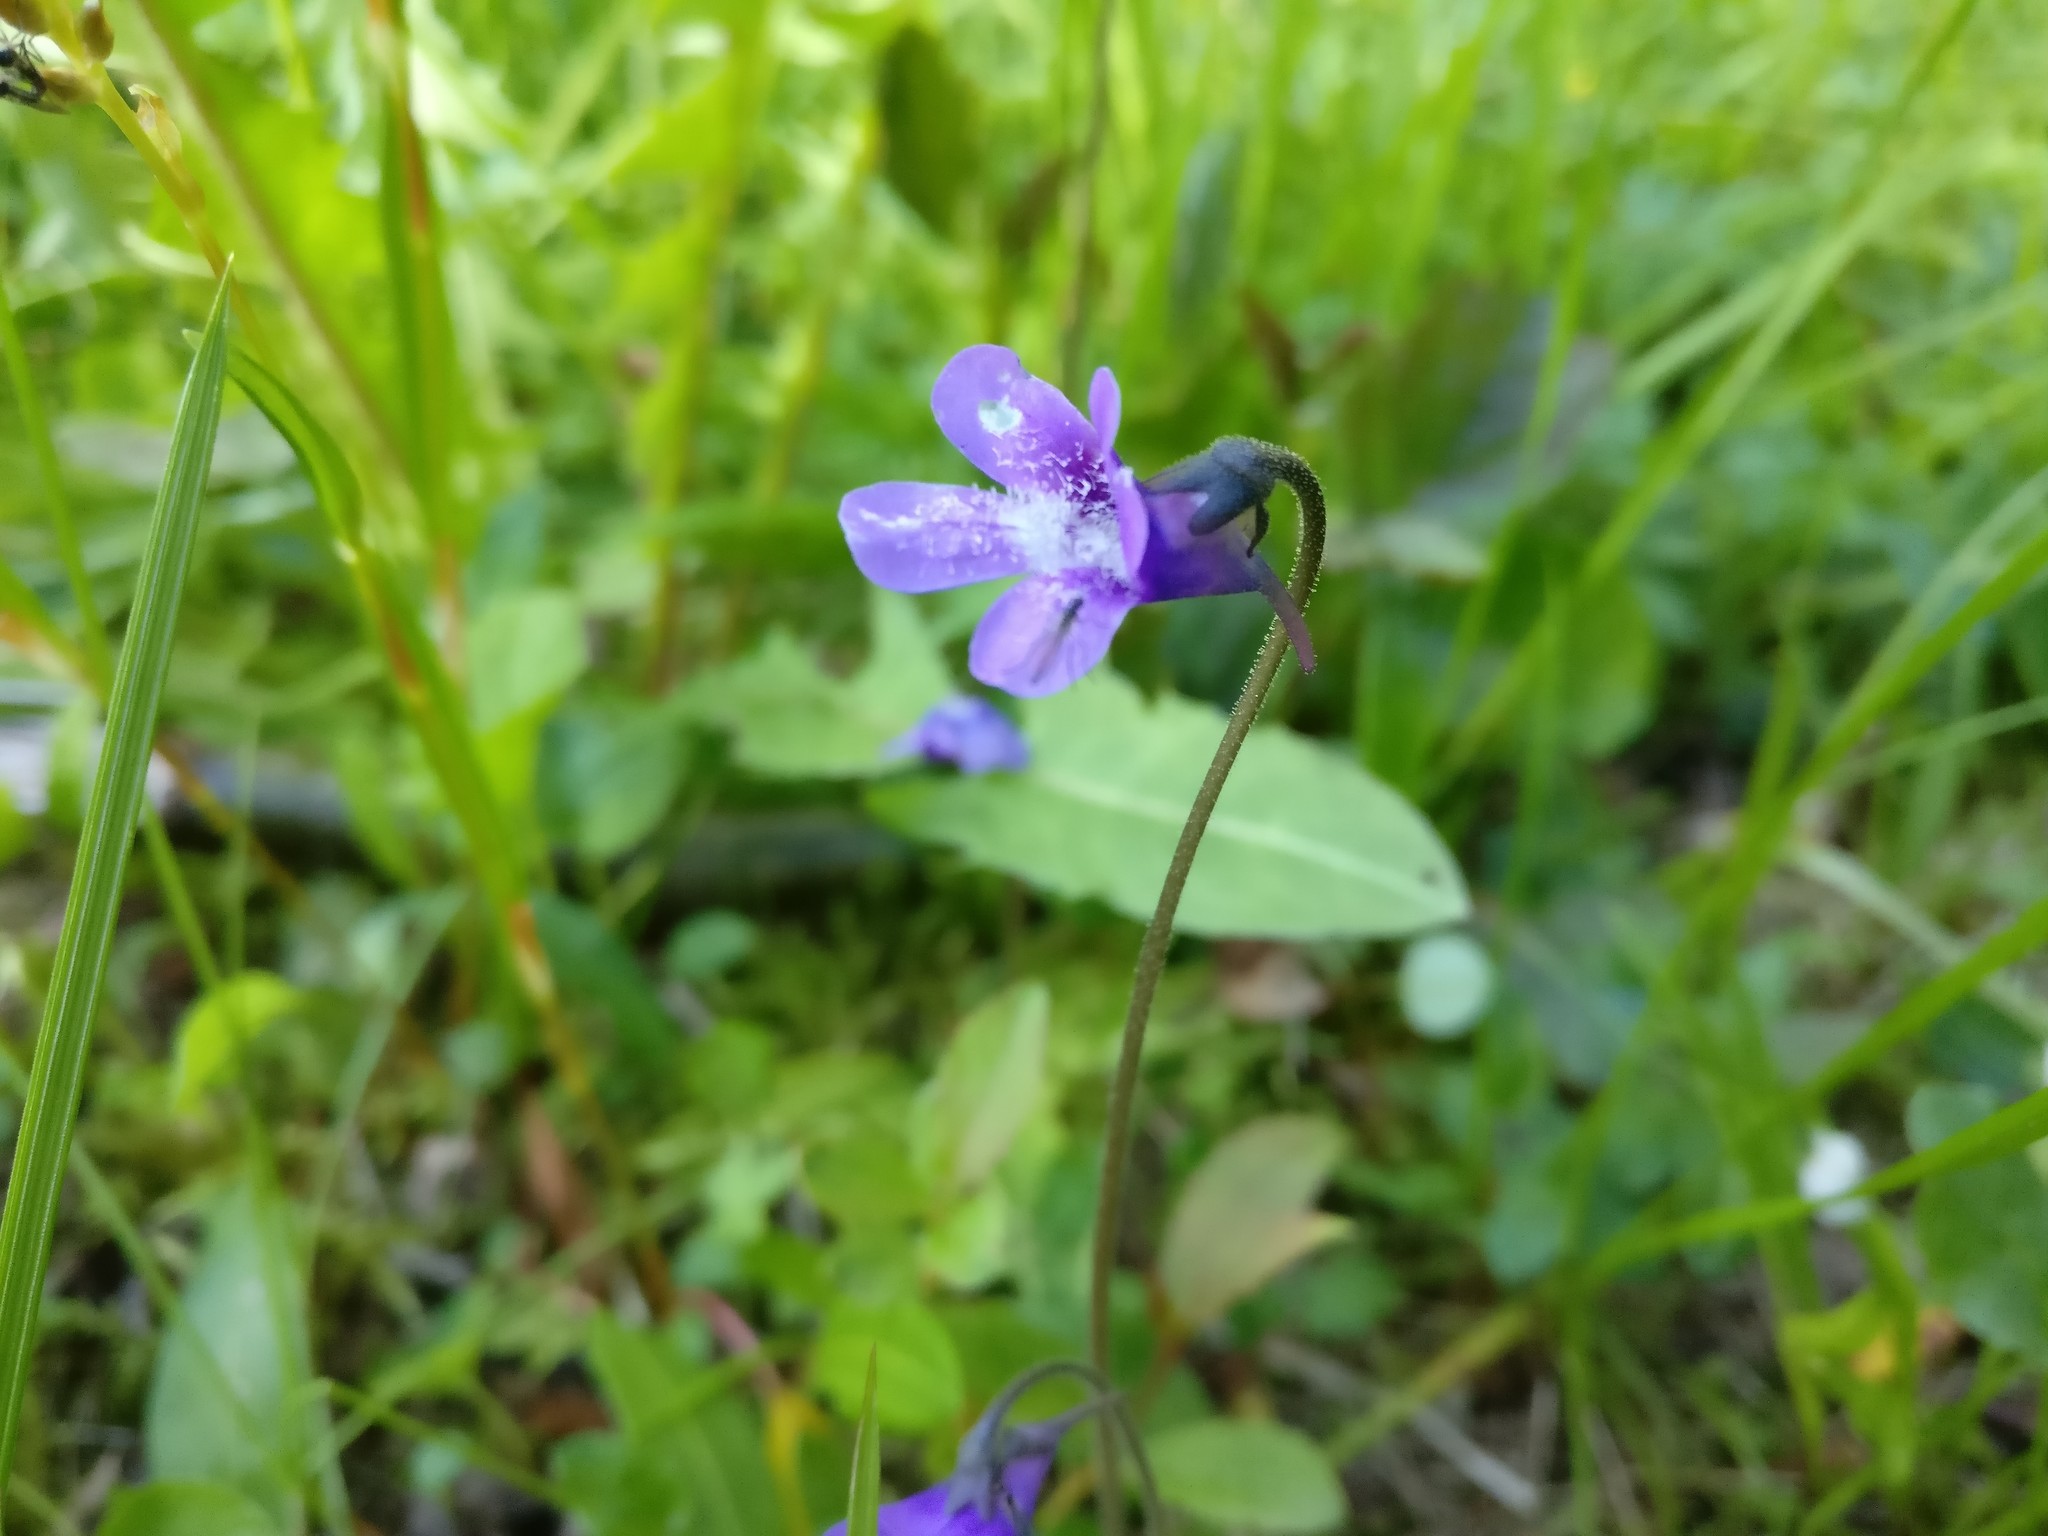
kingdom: Plantae
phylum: Tracheophyta
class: Magnoliopsida
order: Lamiales
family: Lentibulariaceae
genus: Pinguicula
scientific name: Pinguicula vulgaris
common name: Common butterwort
